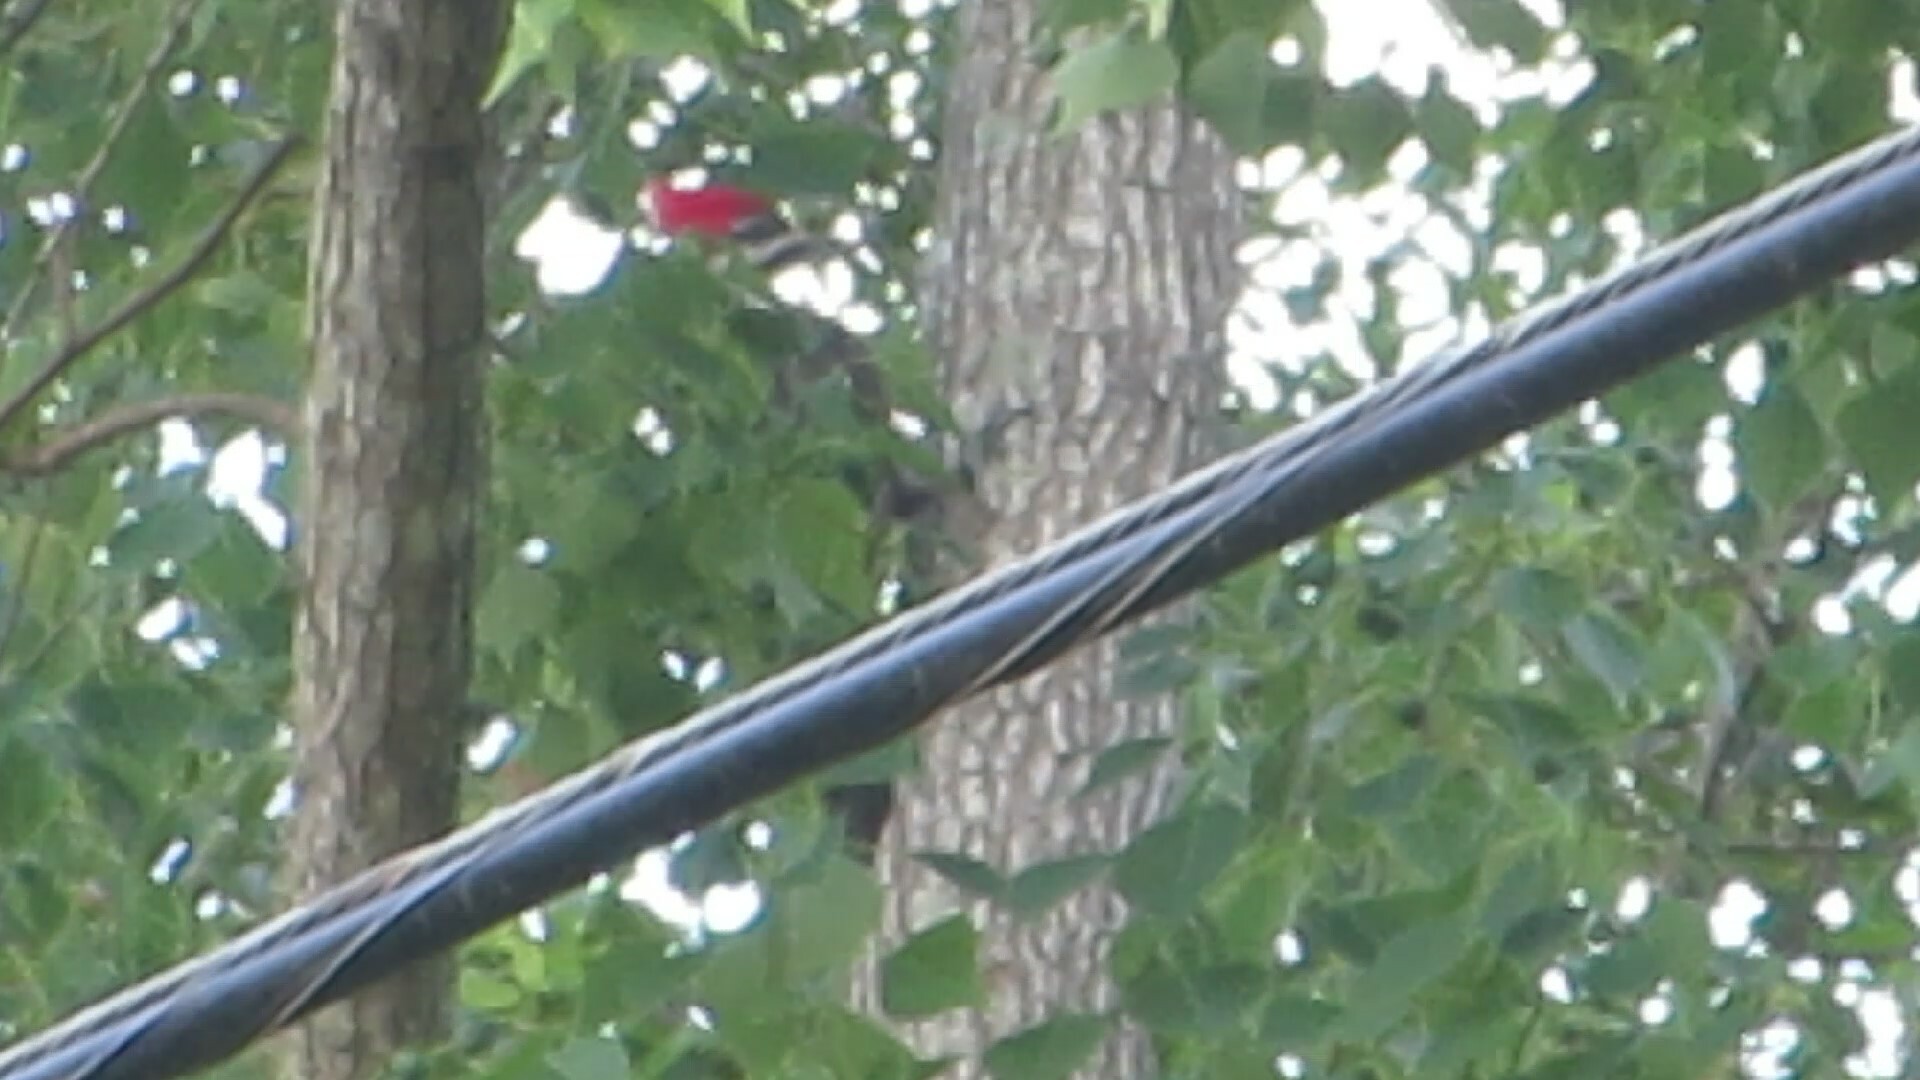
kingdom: Animalia
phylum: Chordata
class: Aves
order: Piciformes
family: Picidae
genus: Dryocopus
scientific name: Dryocopus pileatus
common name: Pileated woodpecker
